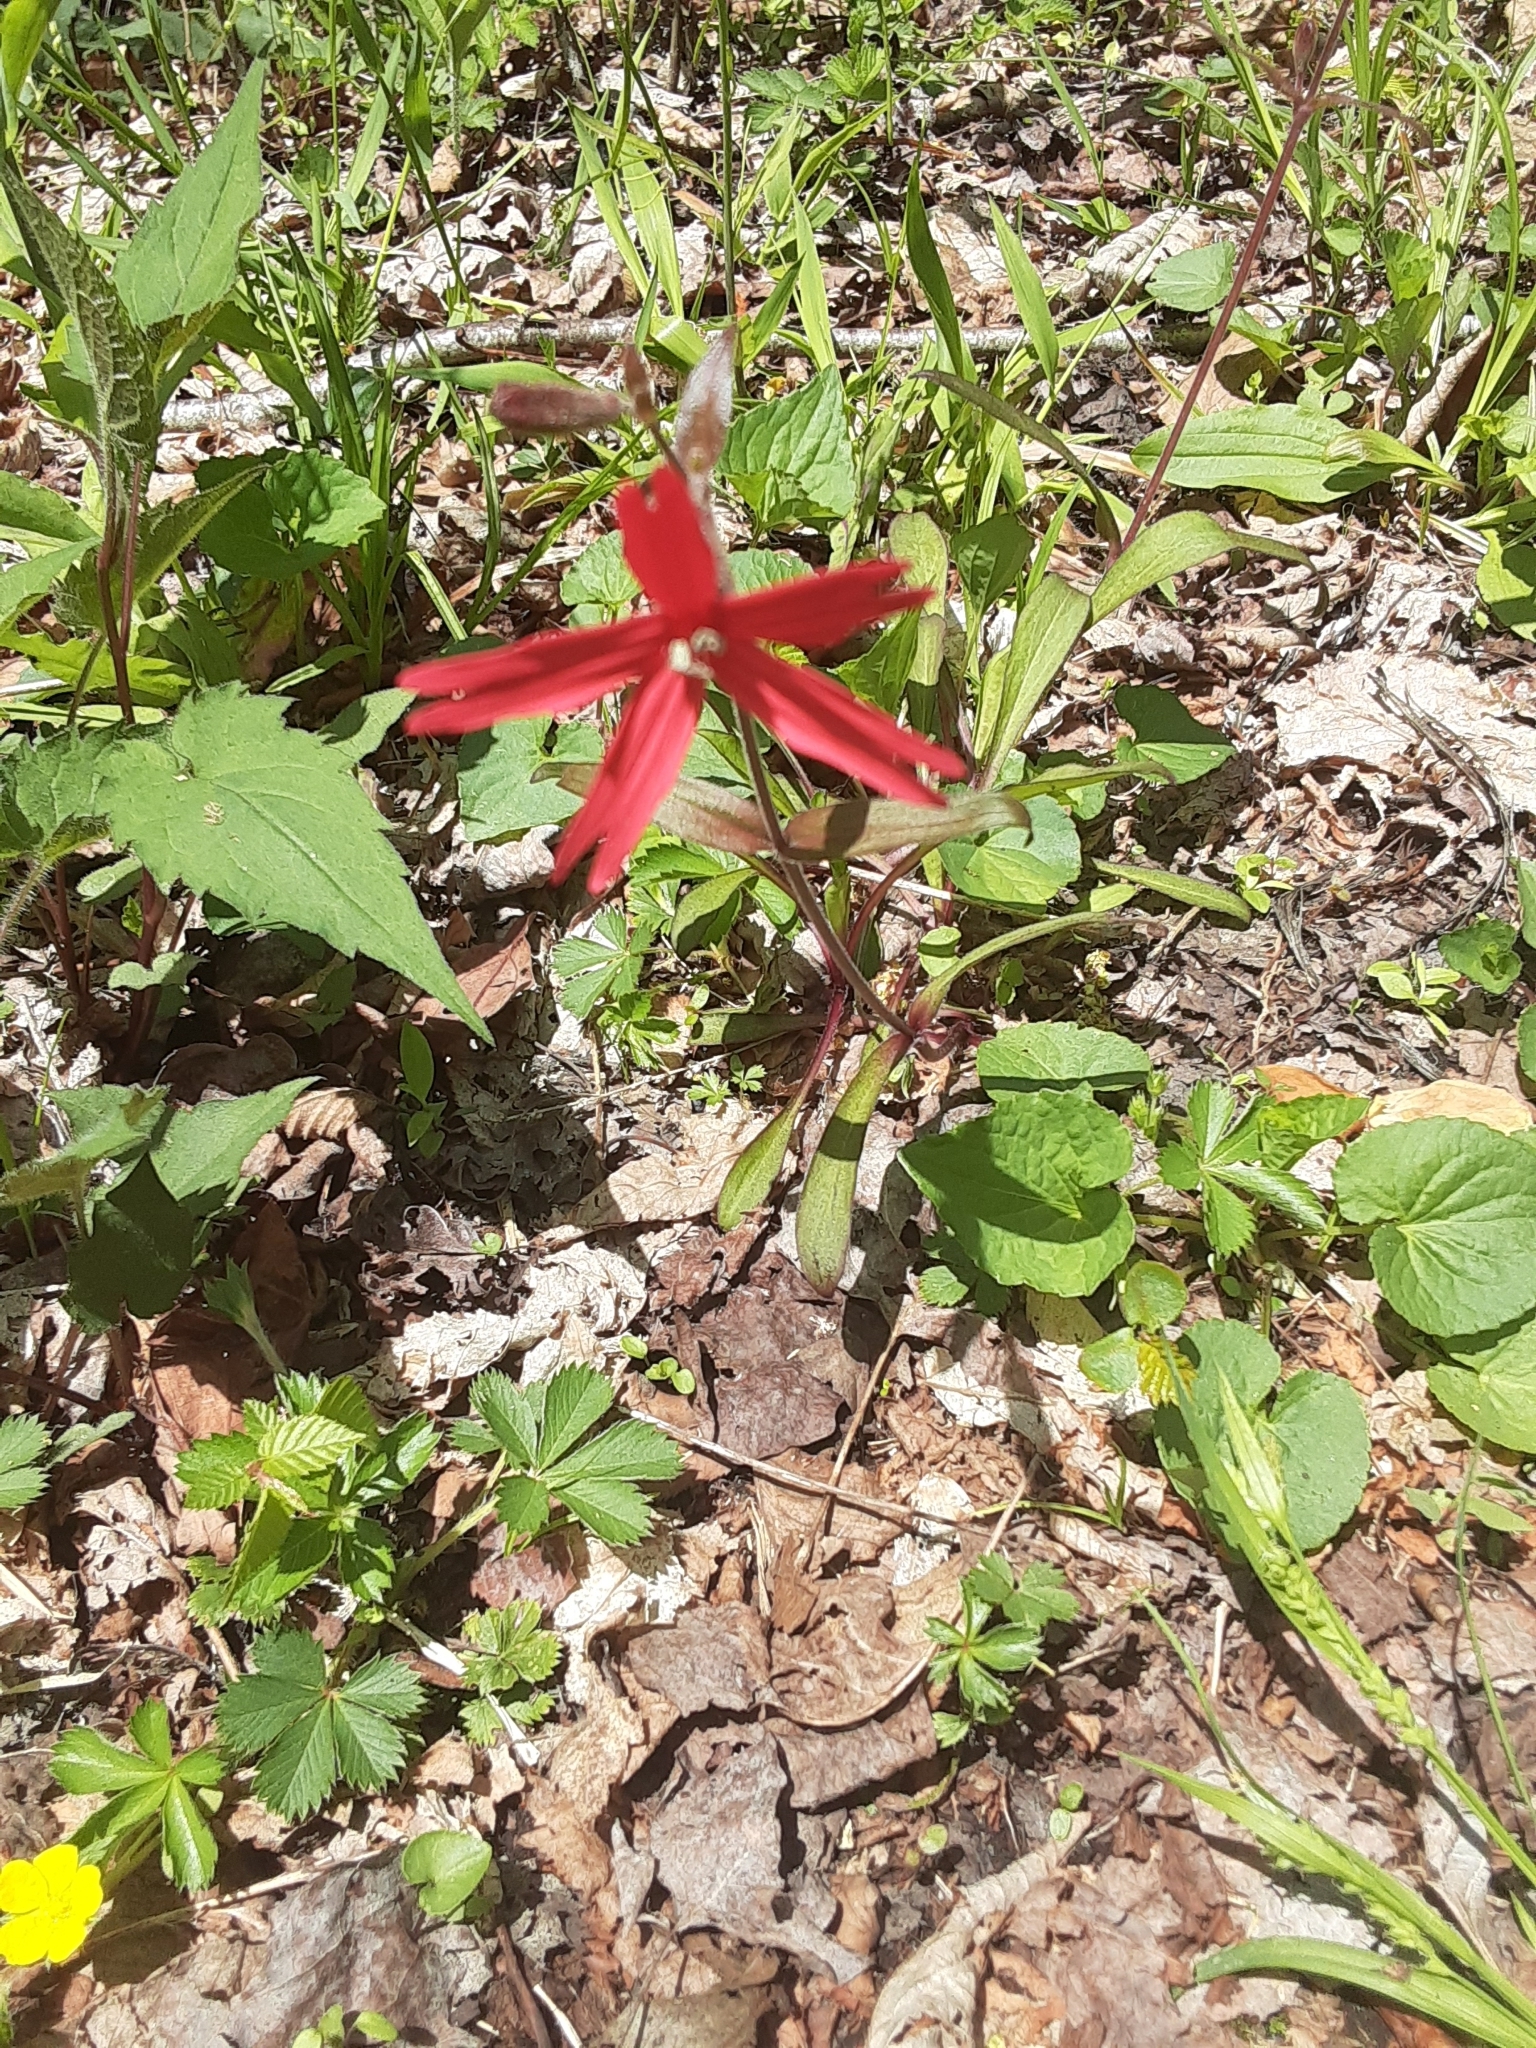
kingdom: Plantae
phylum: Tracheophyta
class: Magnoliopsida
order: Caryophyllales
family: Caryophyllaceae
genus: Silene
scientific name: Silene virginica
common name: Fire-pink
